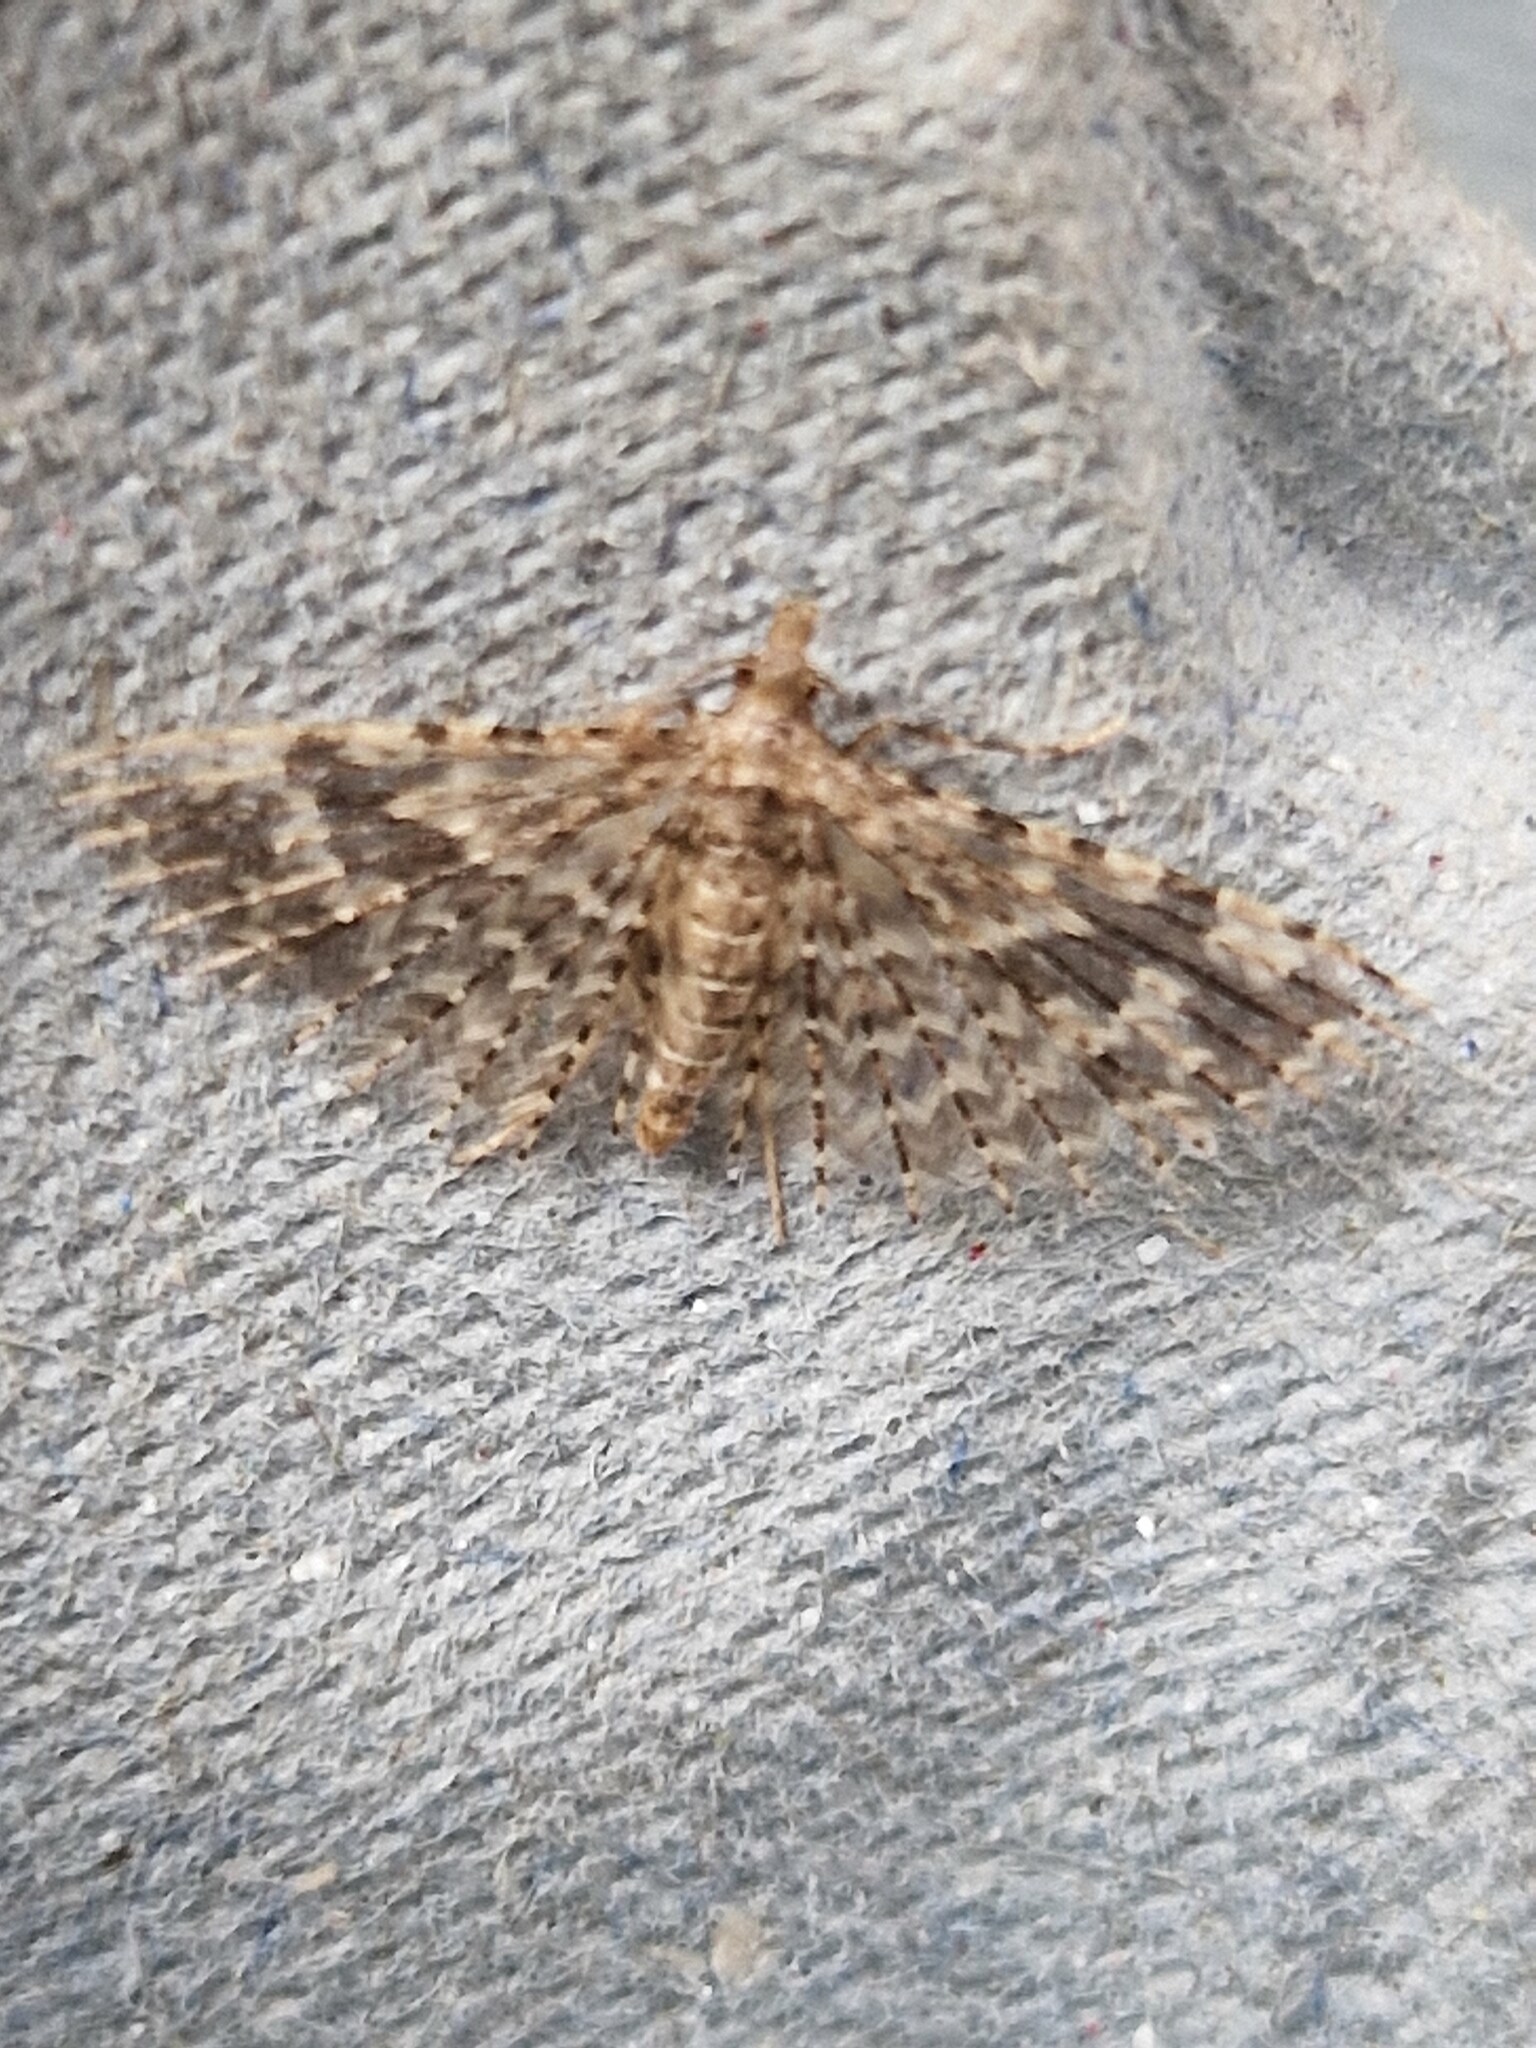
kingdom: Animalia
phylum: Arthropoda
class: Insecta
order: Lepidoptera
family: Alucitidae
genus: Alucita
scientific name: Alucita hexadactyla
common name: Twenty-plume moth
